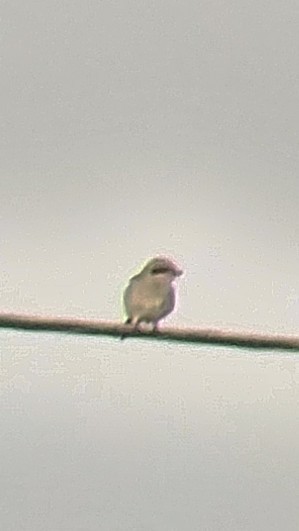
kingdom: Animalia
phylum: Chordata
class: Aves
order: Passeriformes
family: Laniidae
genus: Lanius
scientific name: Lanius ludovicianus
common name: Loggerhead shrike
